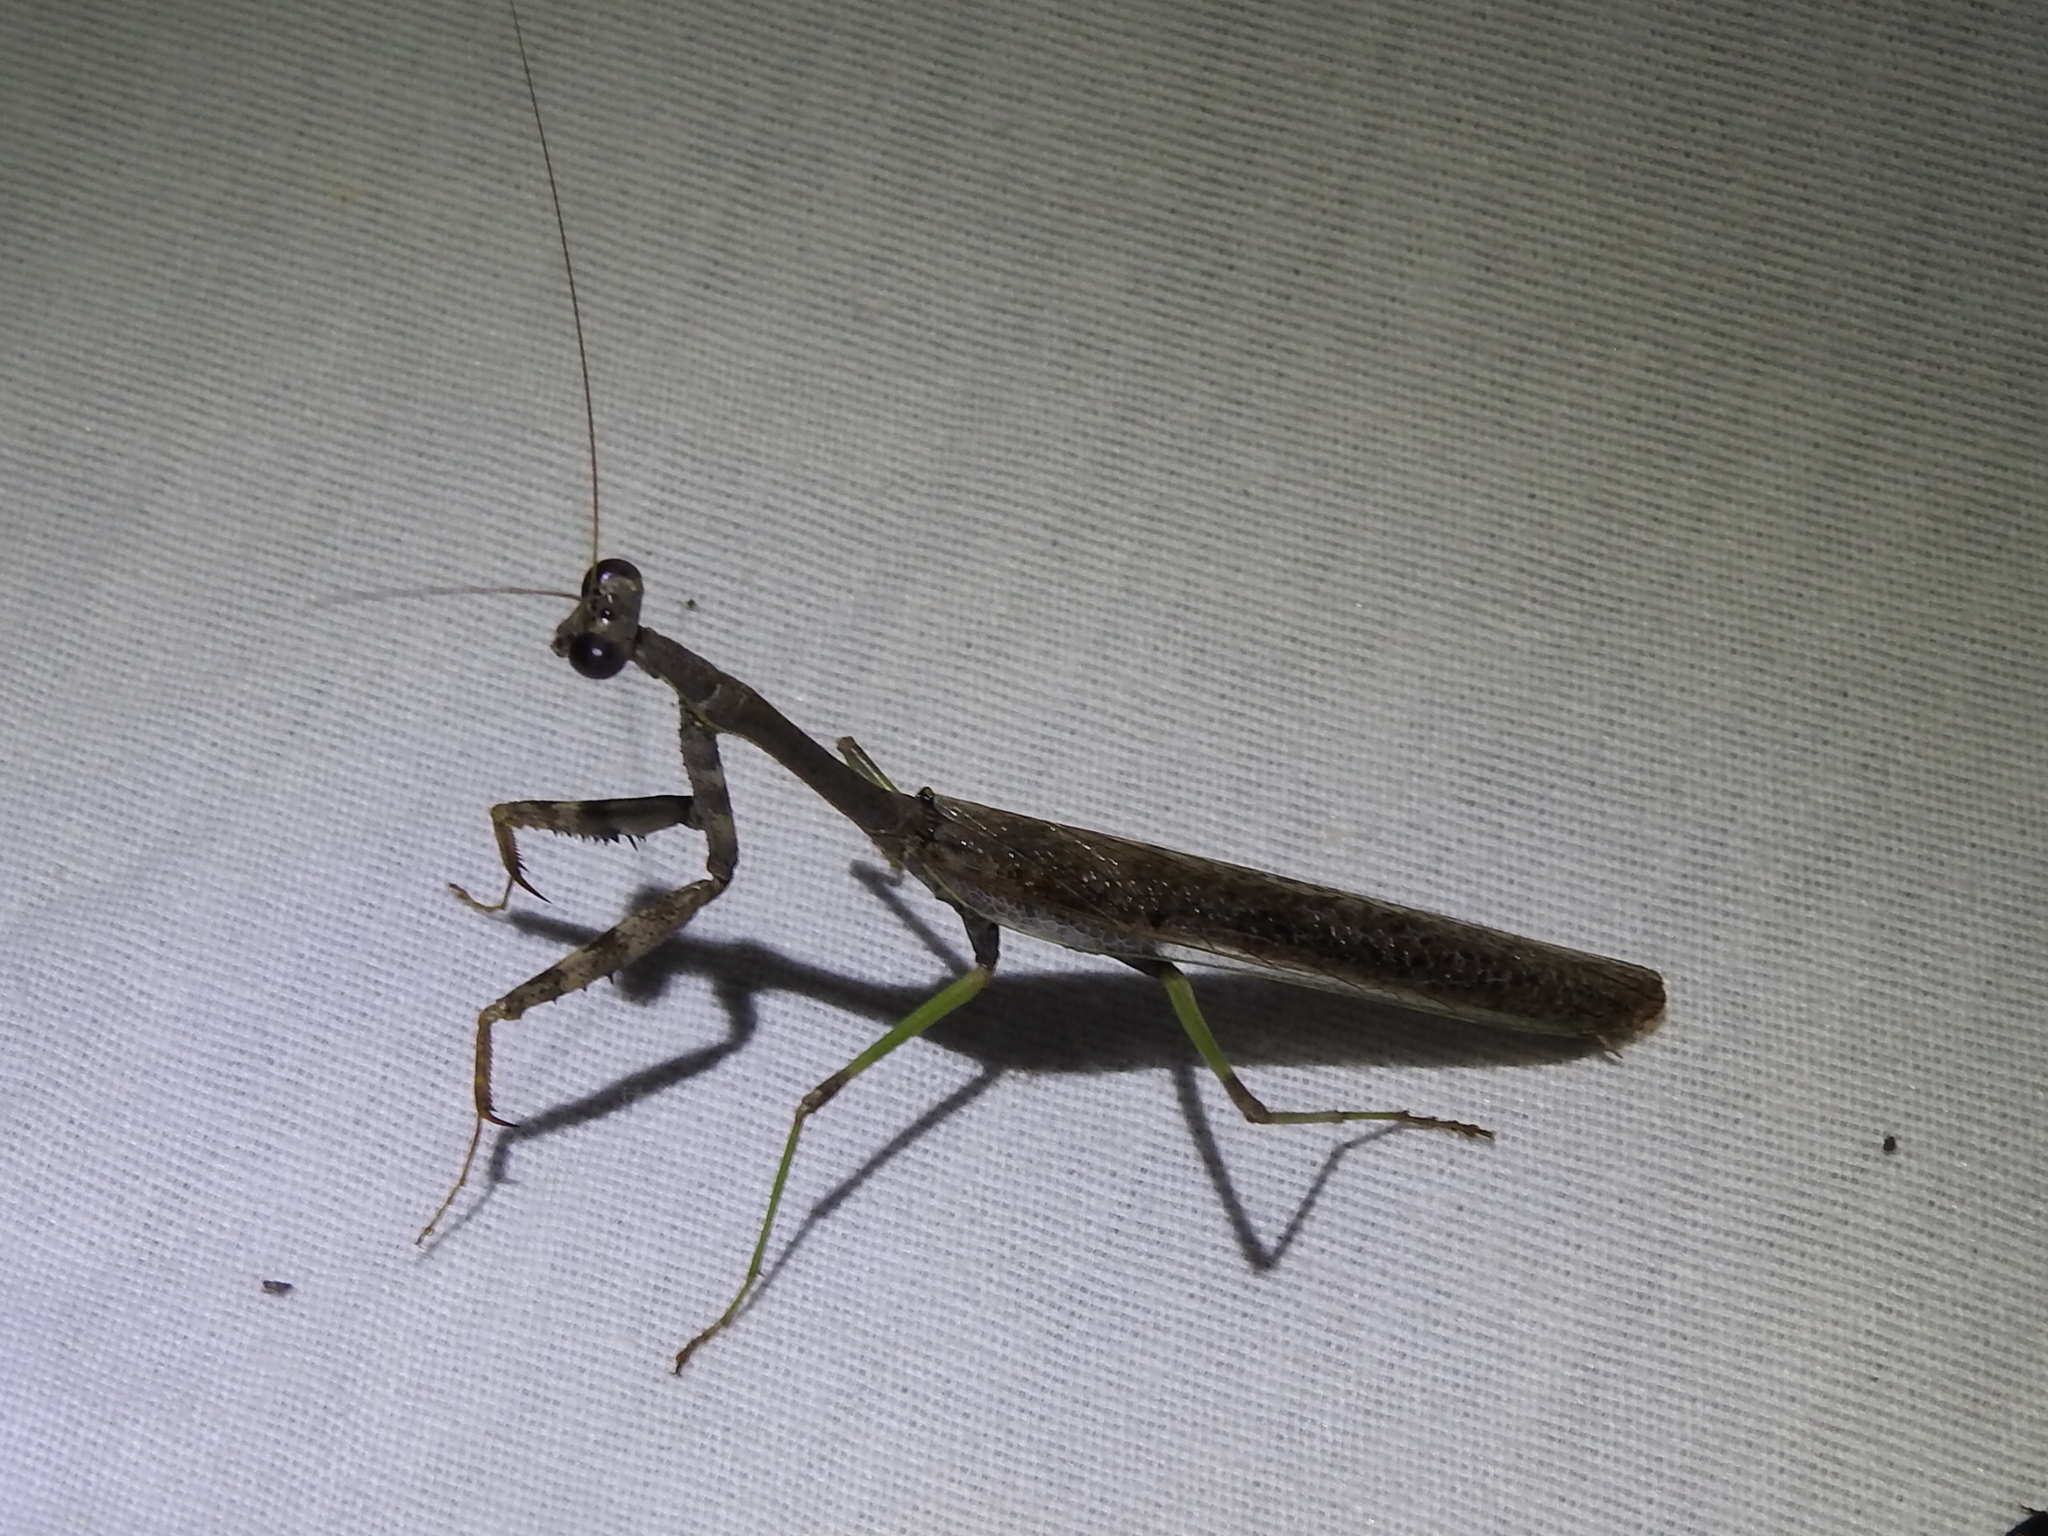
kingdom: Animalia
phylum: Arthropoda
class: Insecta
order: Mantodea
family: Mantidae
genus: Stagmomantis
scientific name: Stagmomantis carolina
